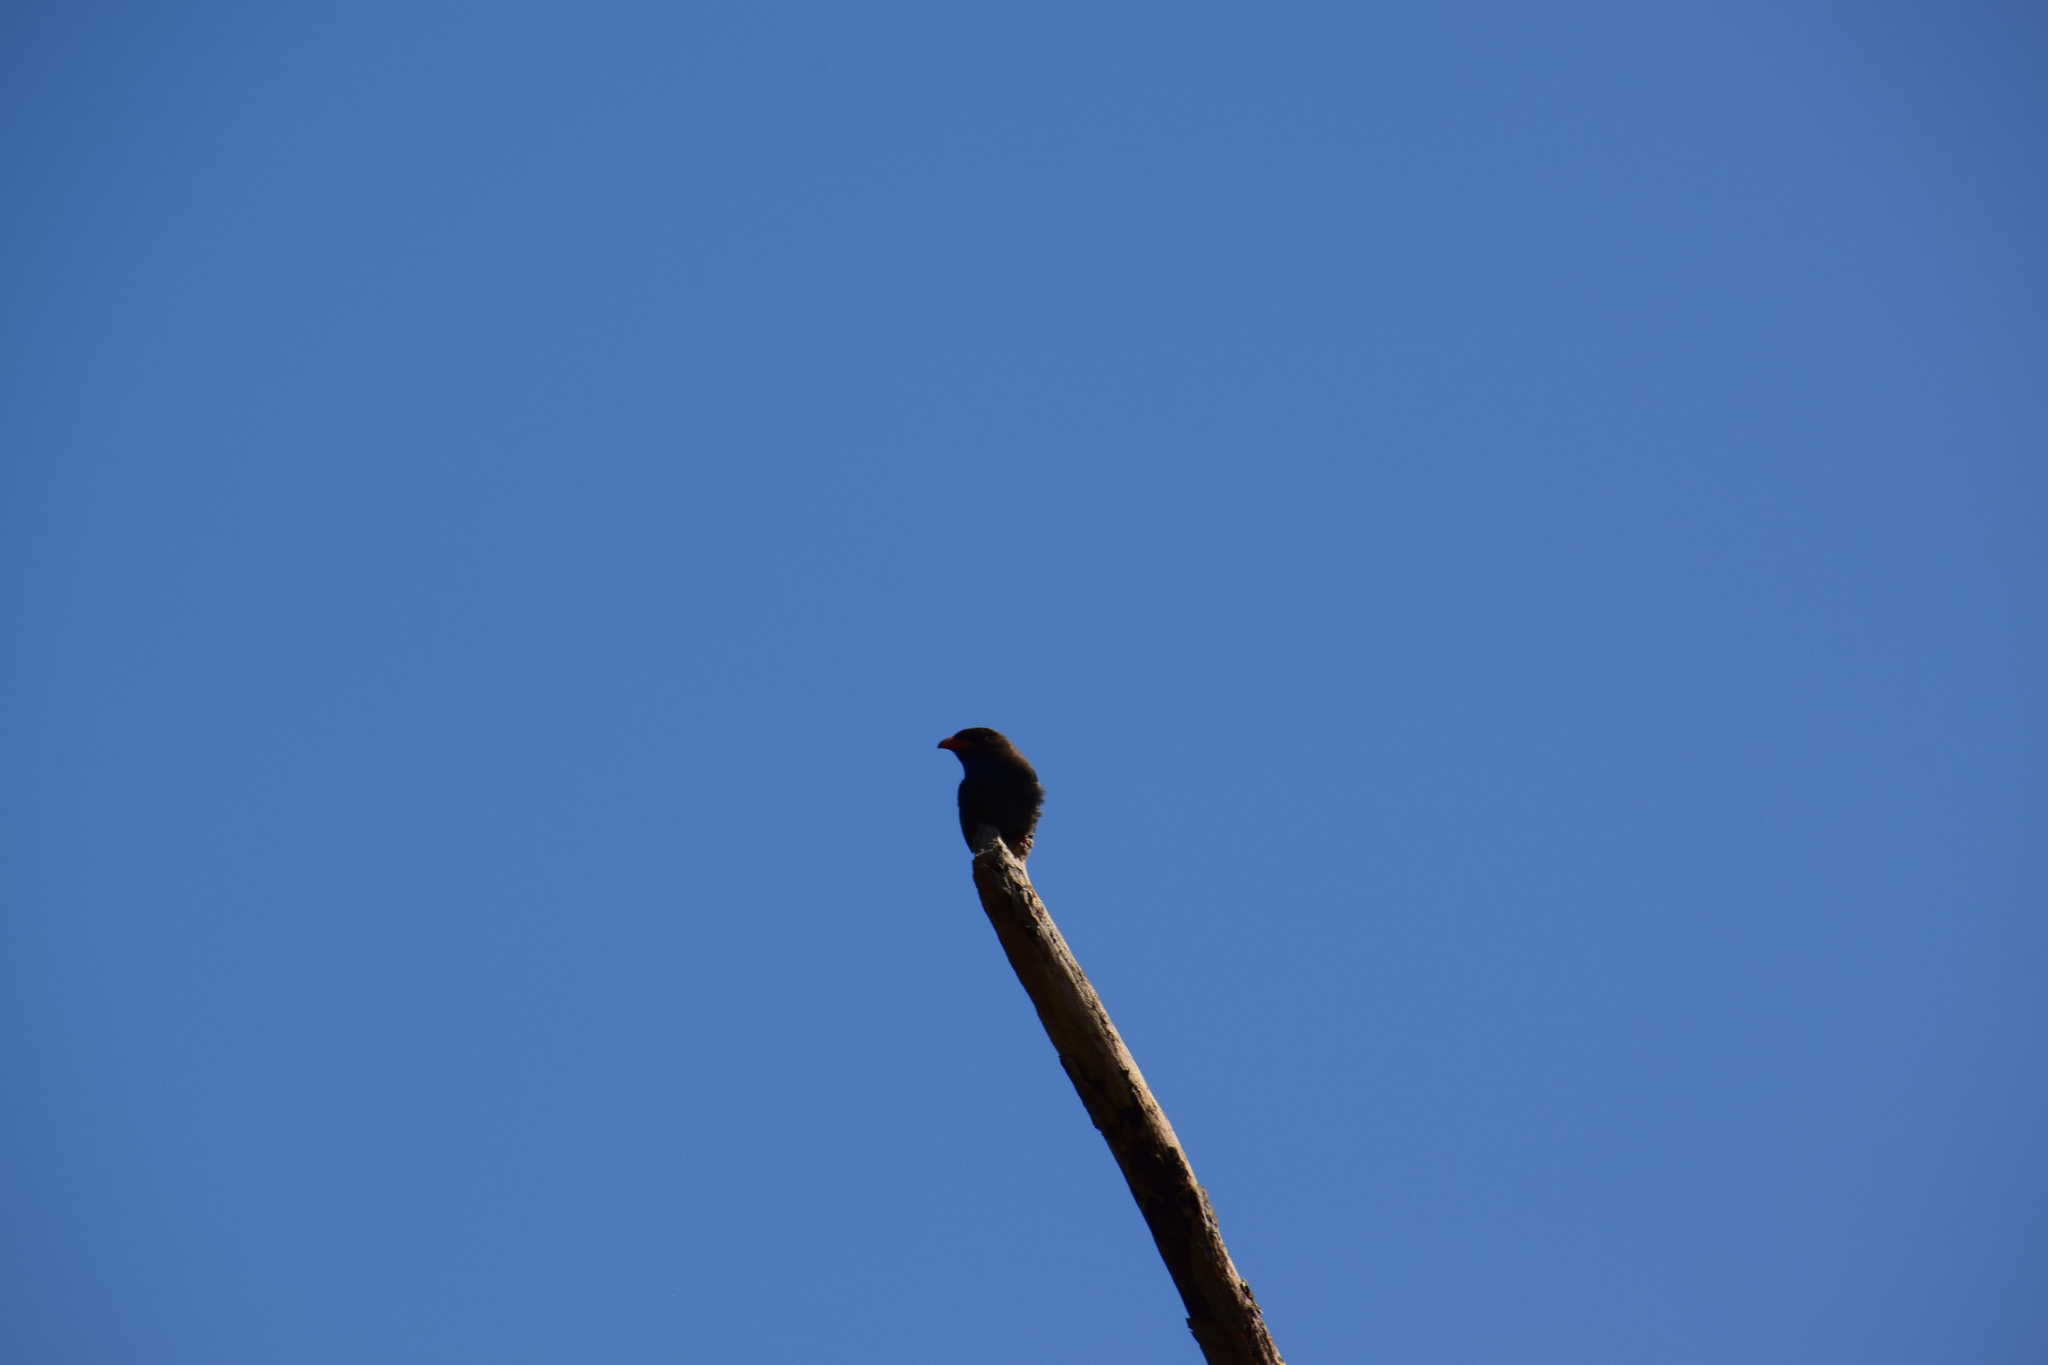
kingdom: Animalia
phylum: Chordata
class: Aves
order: Coraciiformes
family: Coraciidae
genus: Eurystomus
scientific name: Eurystomus orientalis
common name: Oriental dollarbird
